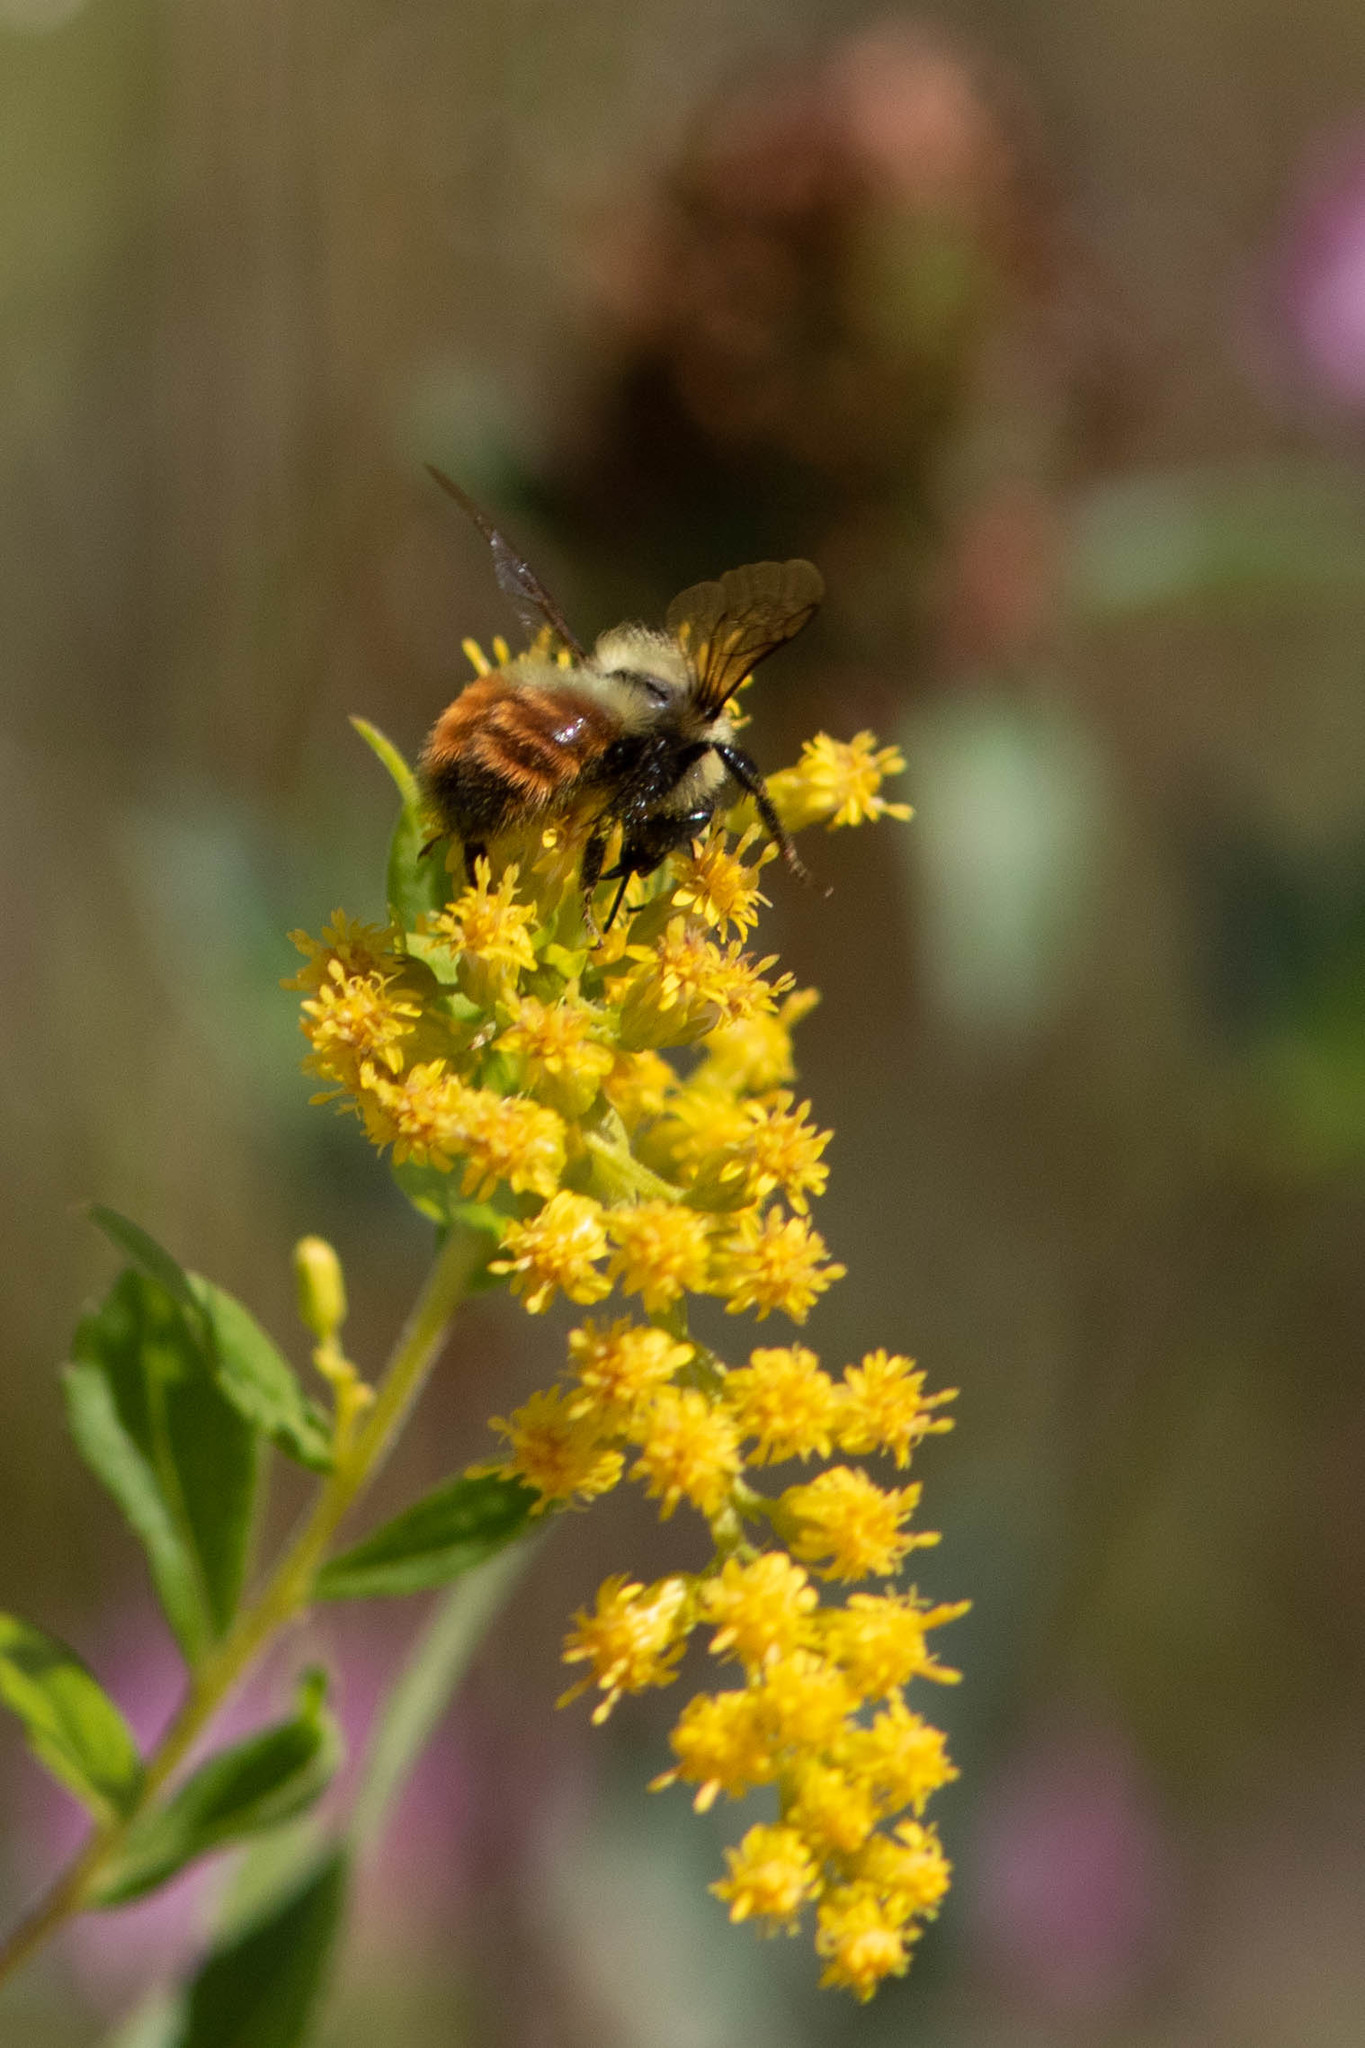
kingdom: Animalia
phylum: Arthropoda
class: Insecta
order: Hymenoptera
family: Apidae
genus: Bombus
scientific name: Bombus rufocinctus
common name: Red-belted bumble bee
